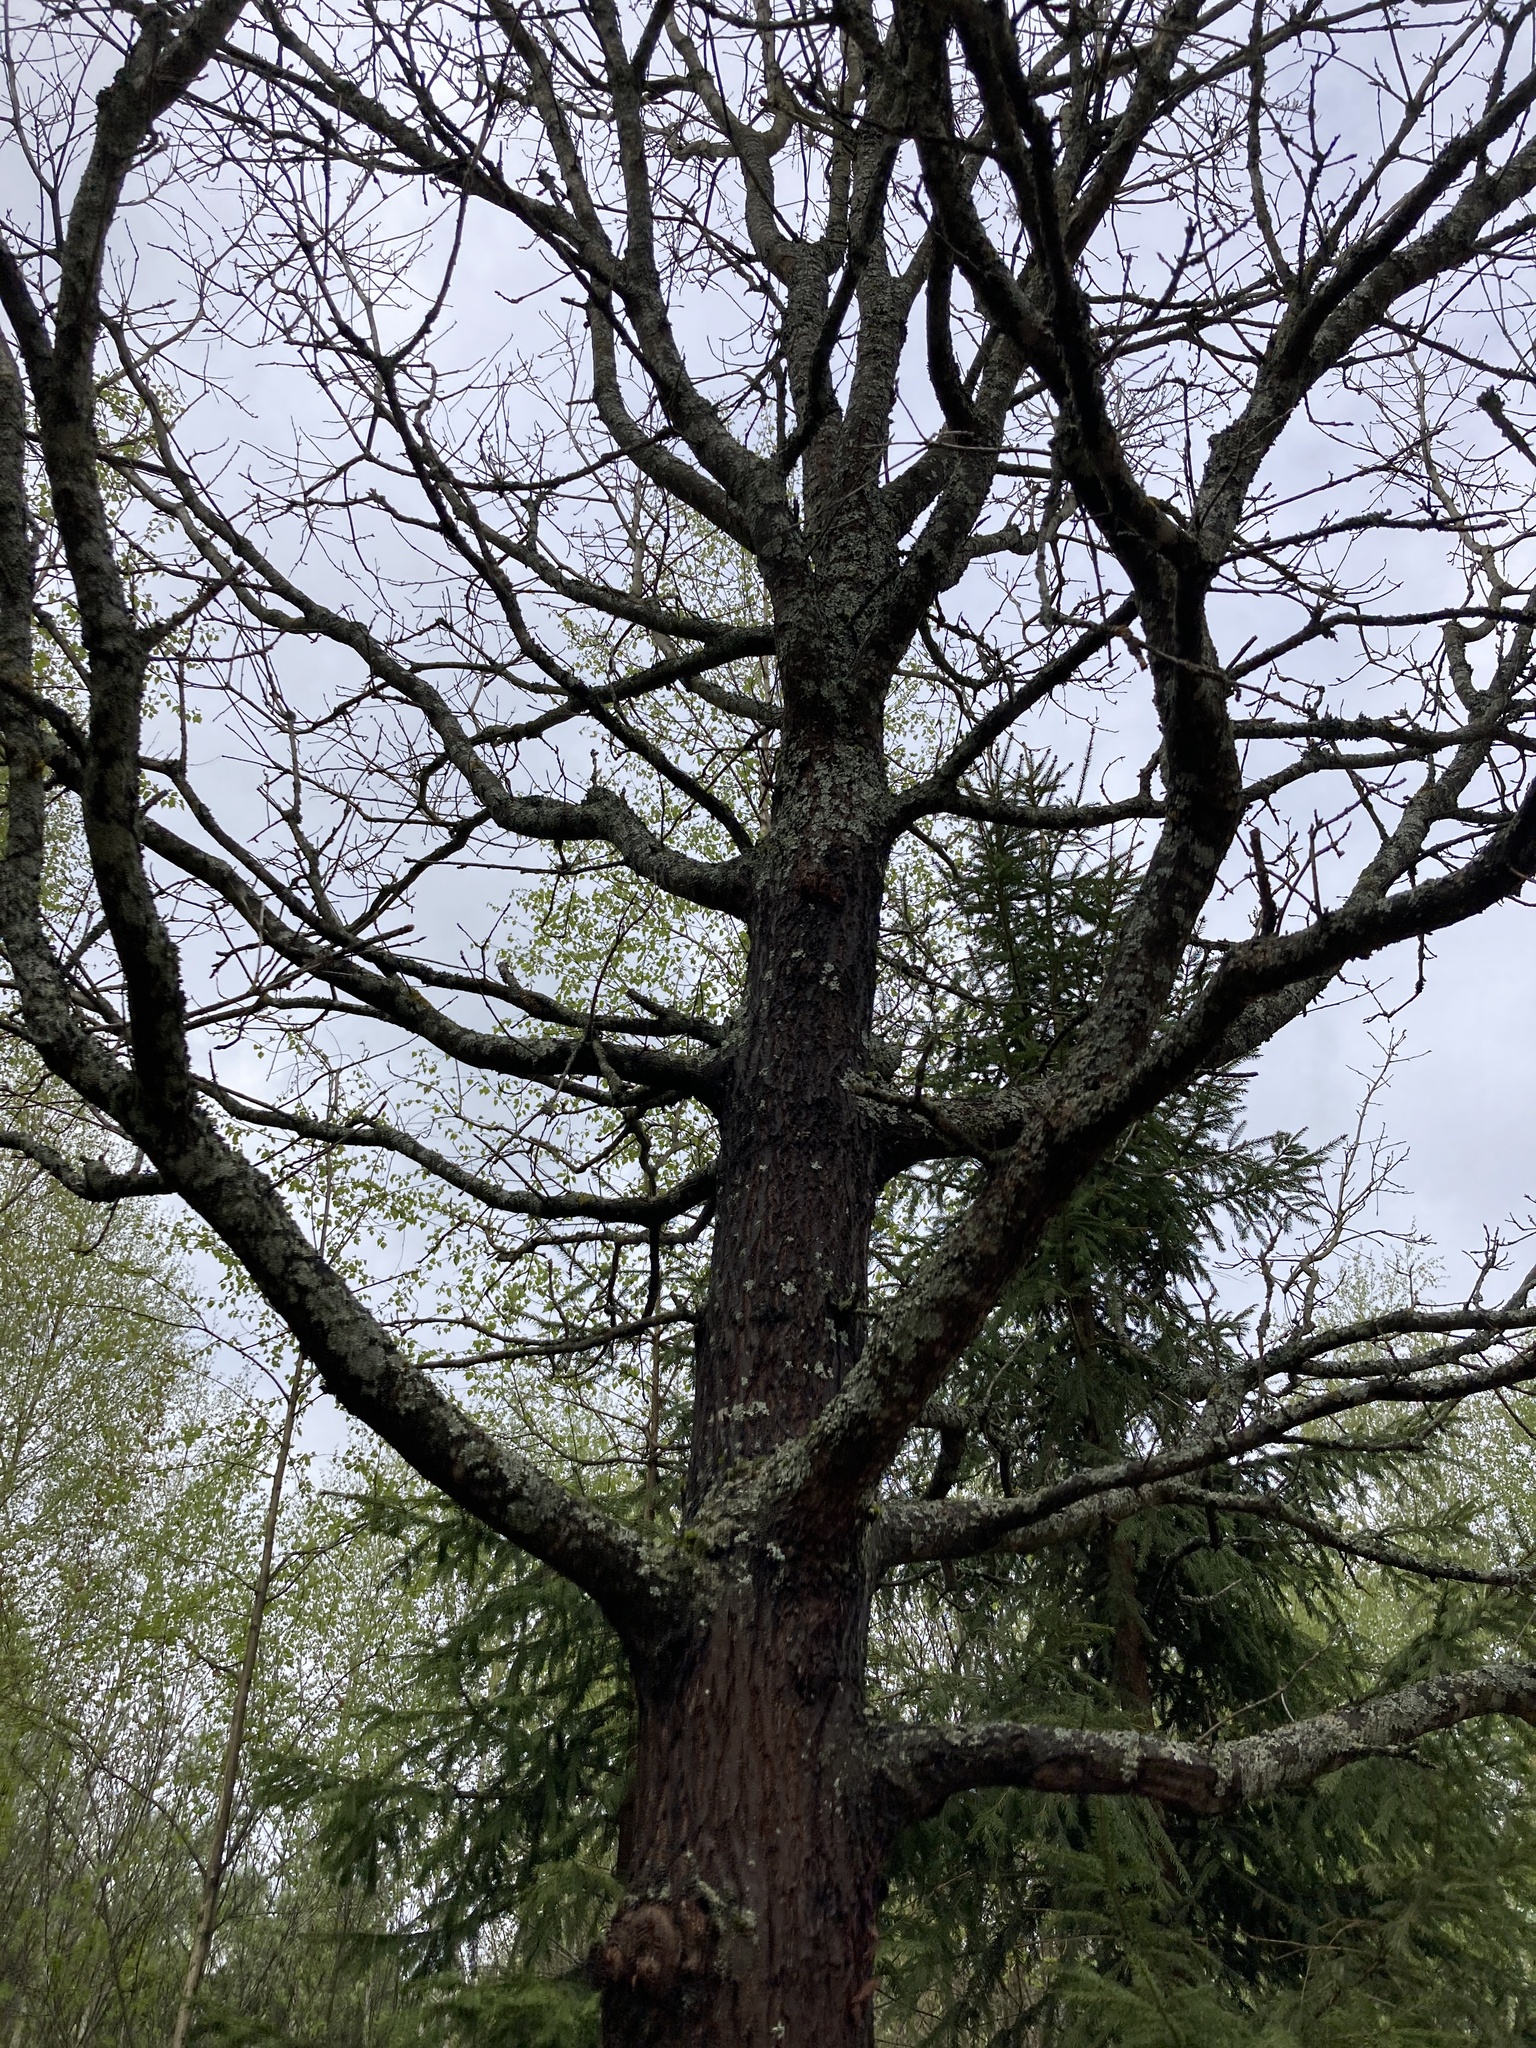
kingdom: Plantae
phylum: Tracheophyta
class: Magnoliopsida
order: Fagales
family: Fagaceae
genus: Quercus
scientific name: Quercus robur
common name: Pedunculate oak
